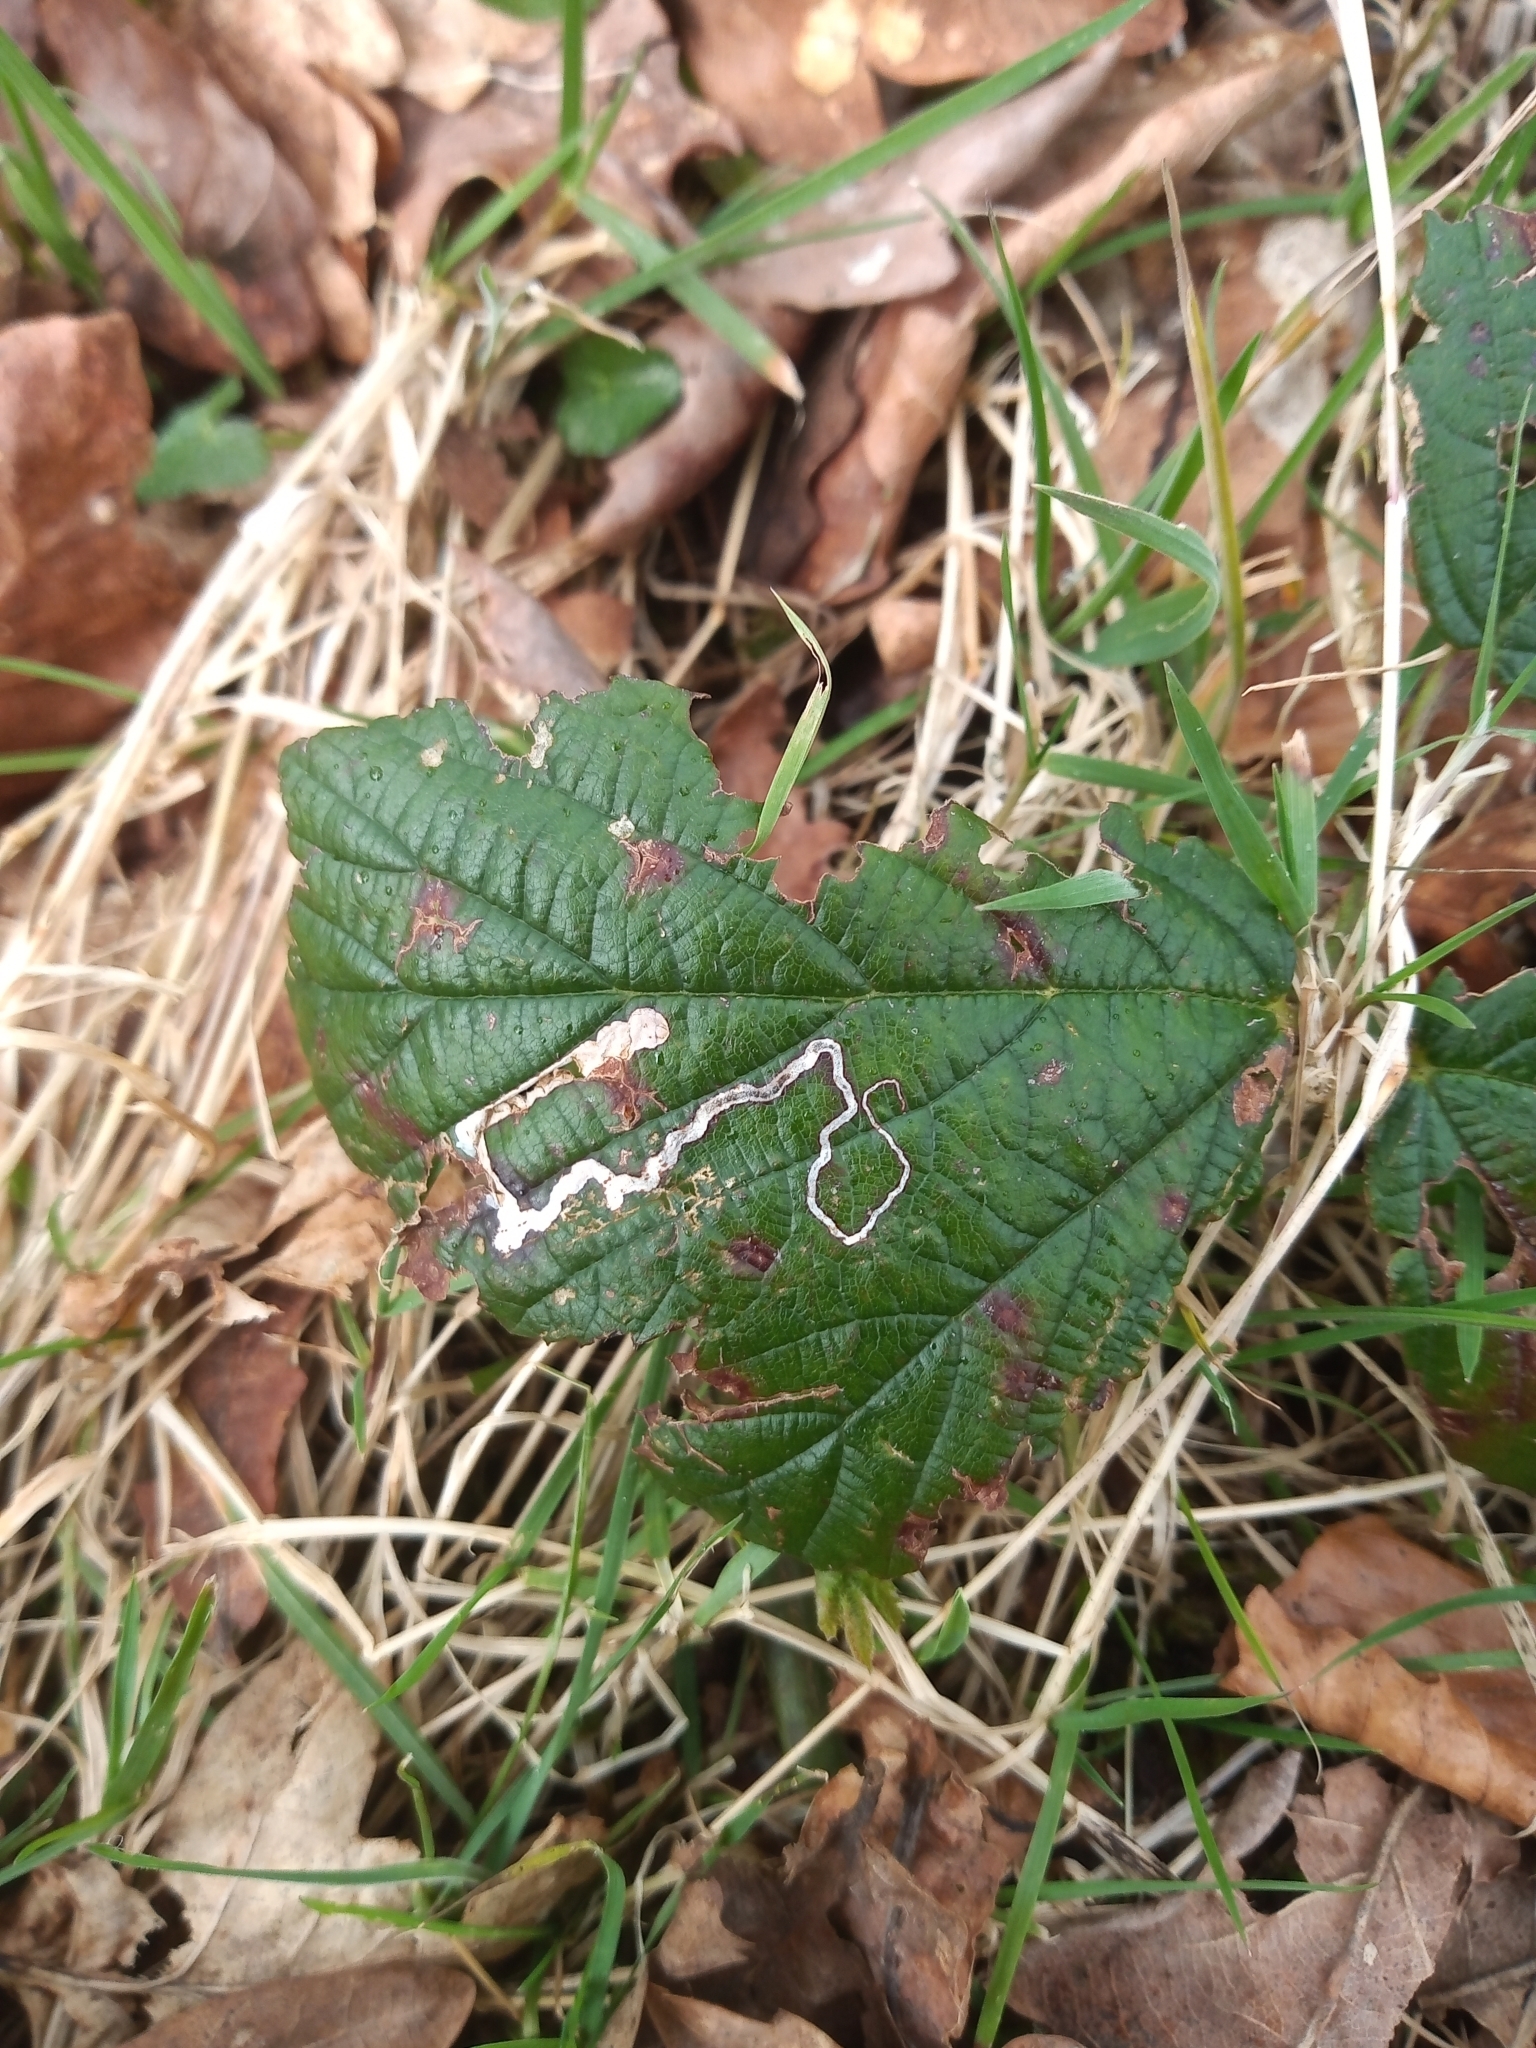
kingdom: Animalia
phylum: Arthropoda
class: Insecta
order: Lepidoptera
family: Nepticulidae
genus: Stigmella
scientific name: Stigmella aurella
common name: Golden pigmy
